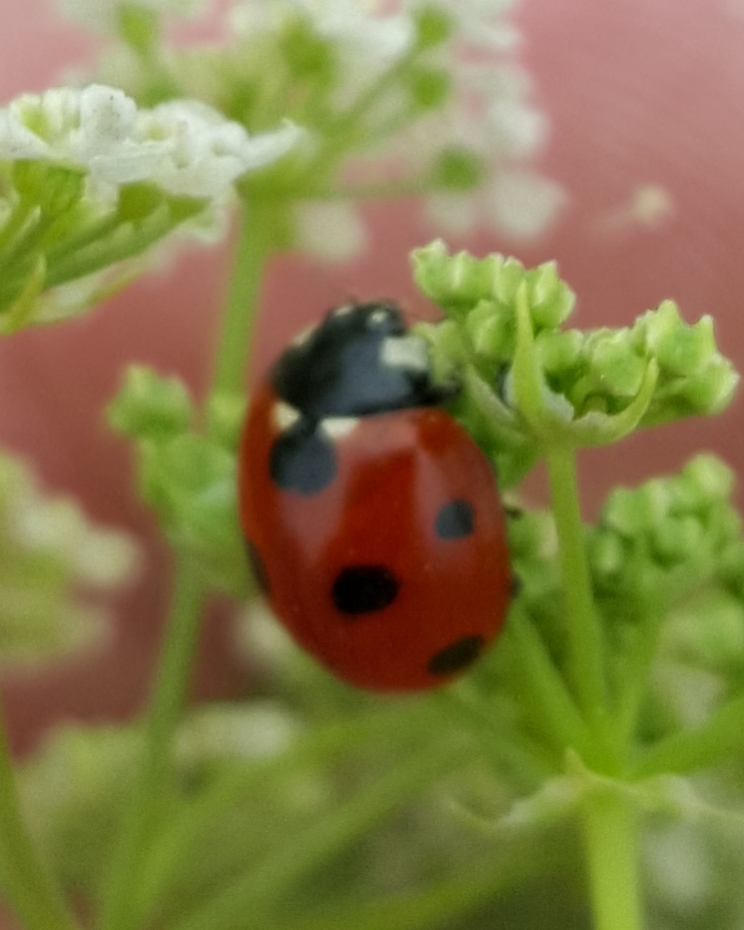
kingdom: Animalia
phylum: Arthropoda
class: Insecta
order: Coleoptera
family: Coccinellidae
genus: Coccinella
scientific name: Coccinella septempunctata
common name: Sevenspotted lady beetle
